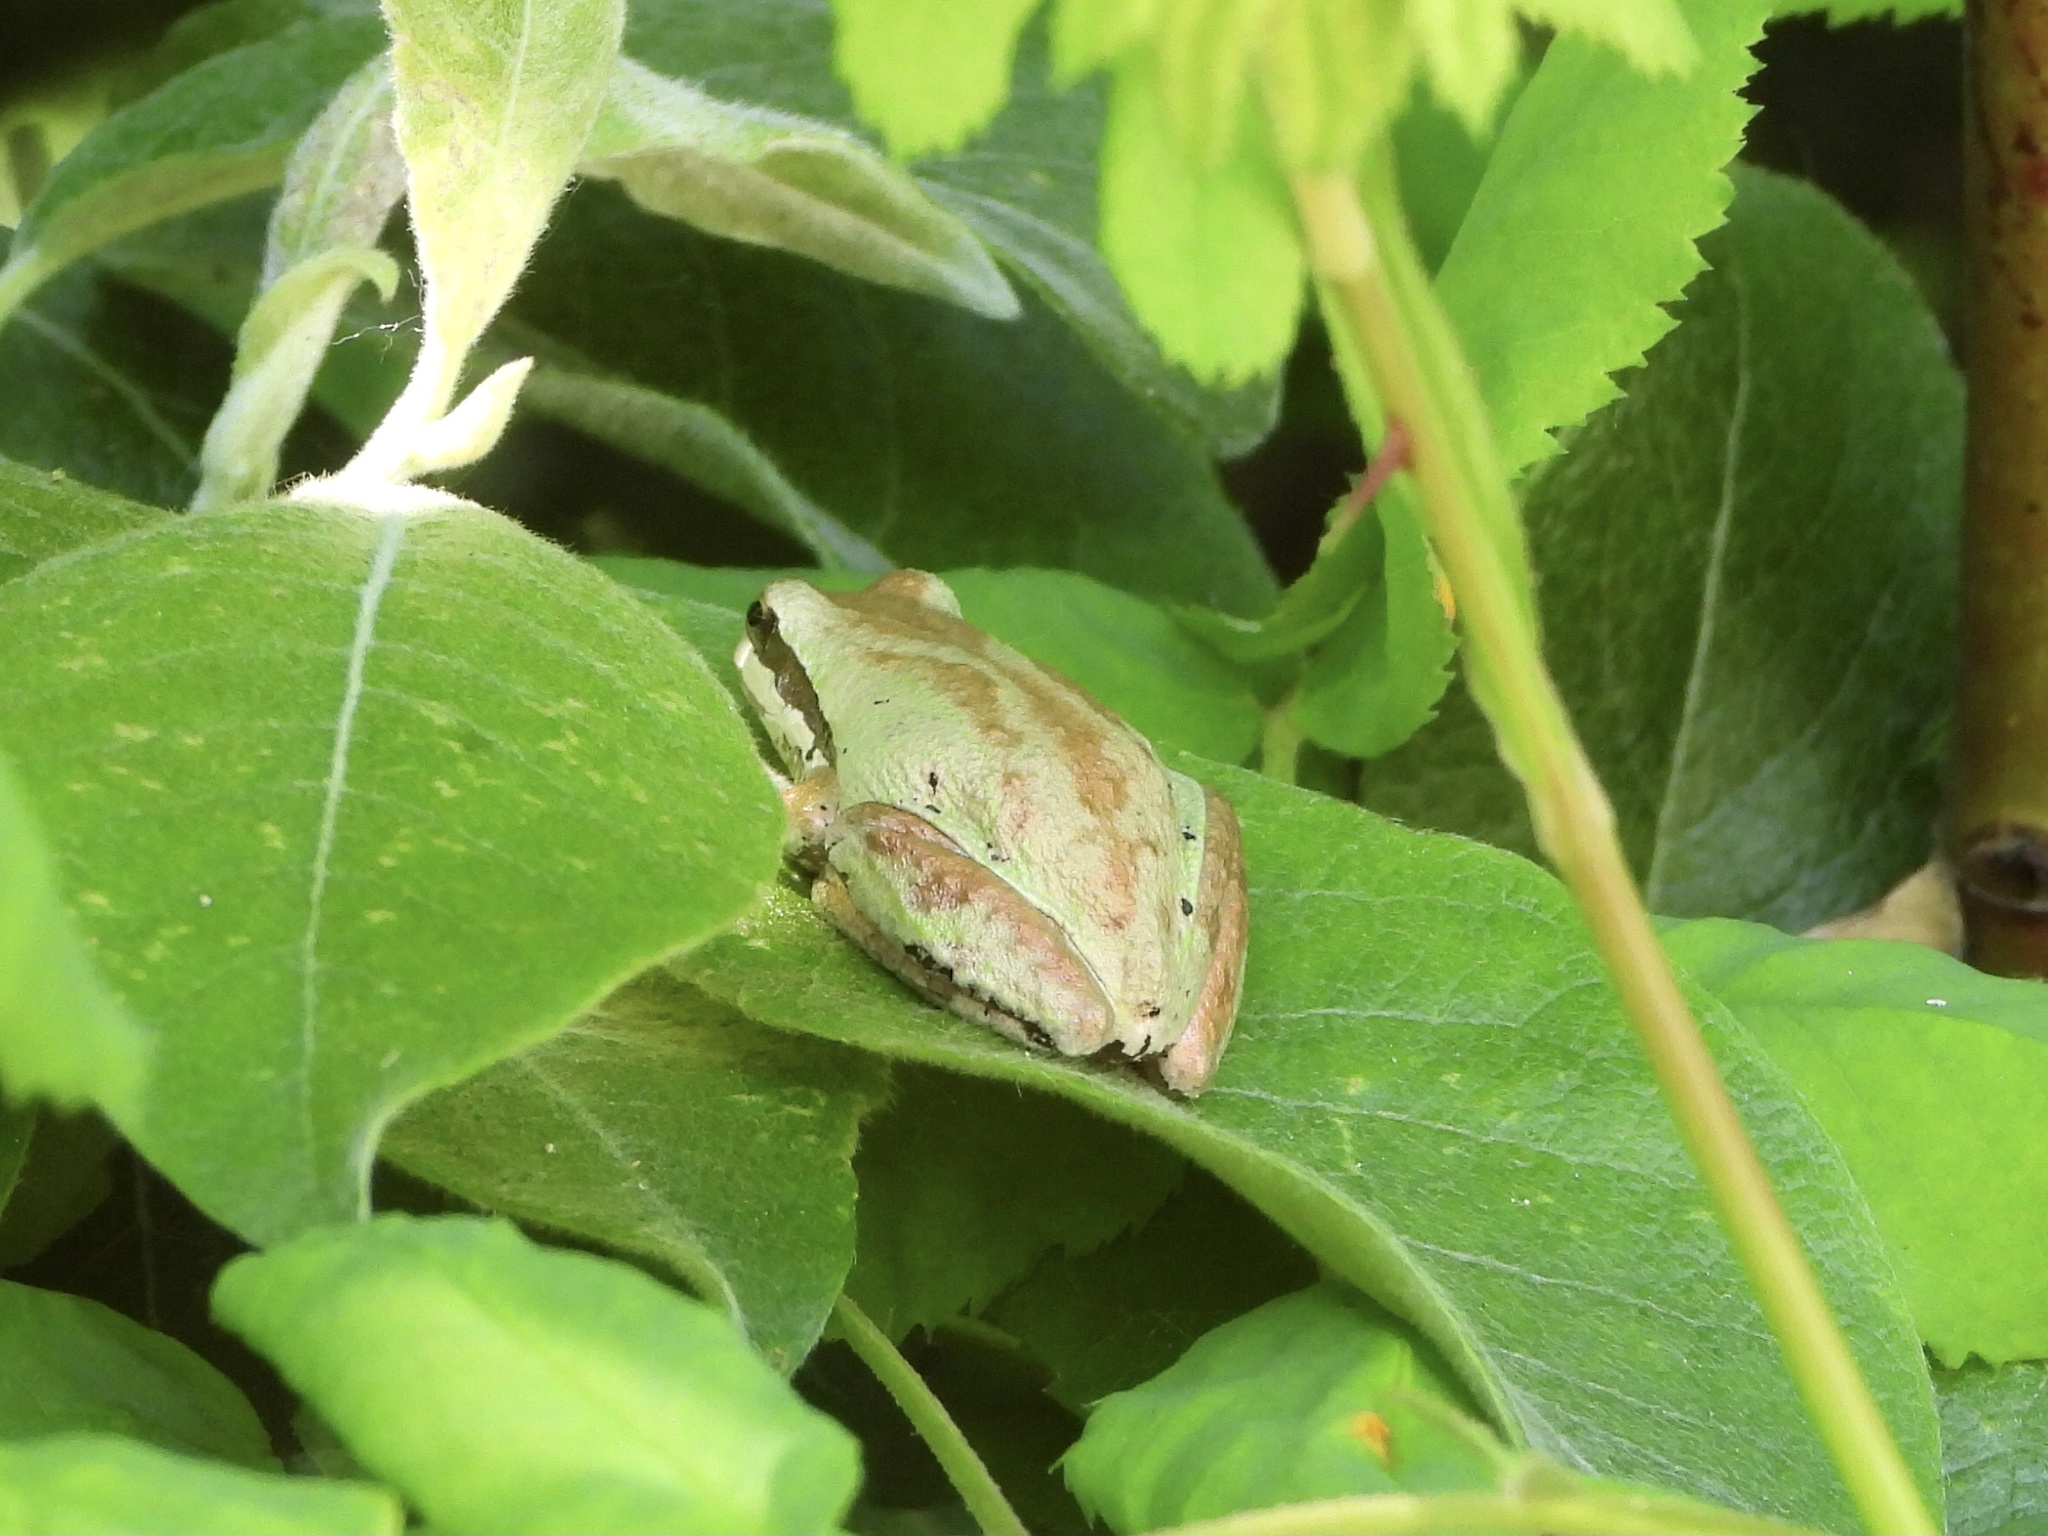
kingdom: Animalia
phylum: Chordata
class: Amphibia
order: Anura
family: Hylidae
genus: Pseudacris
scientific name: Pseudacris regilla
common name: Pacific chorus frog
